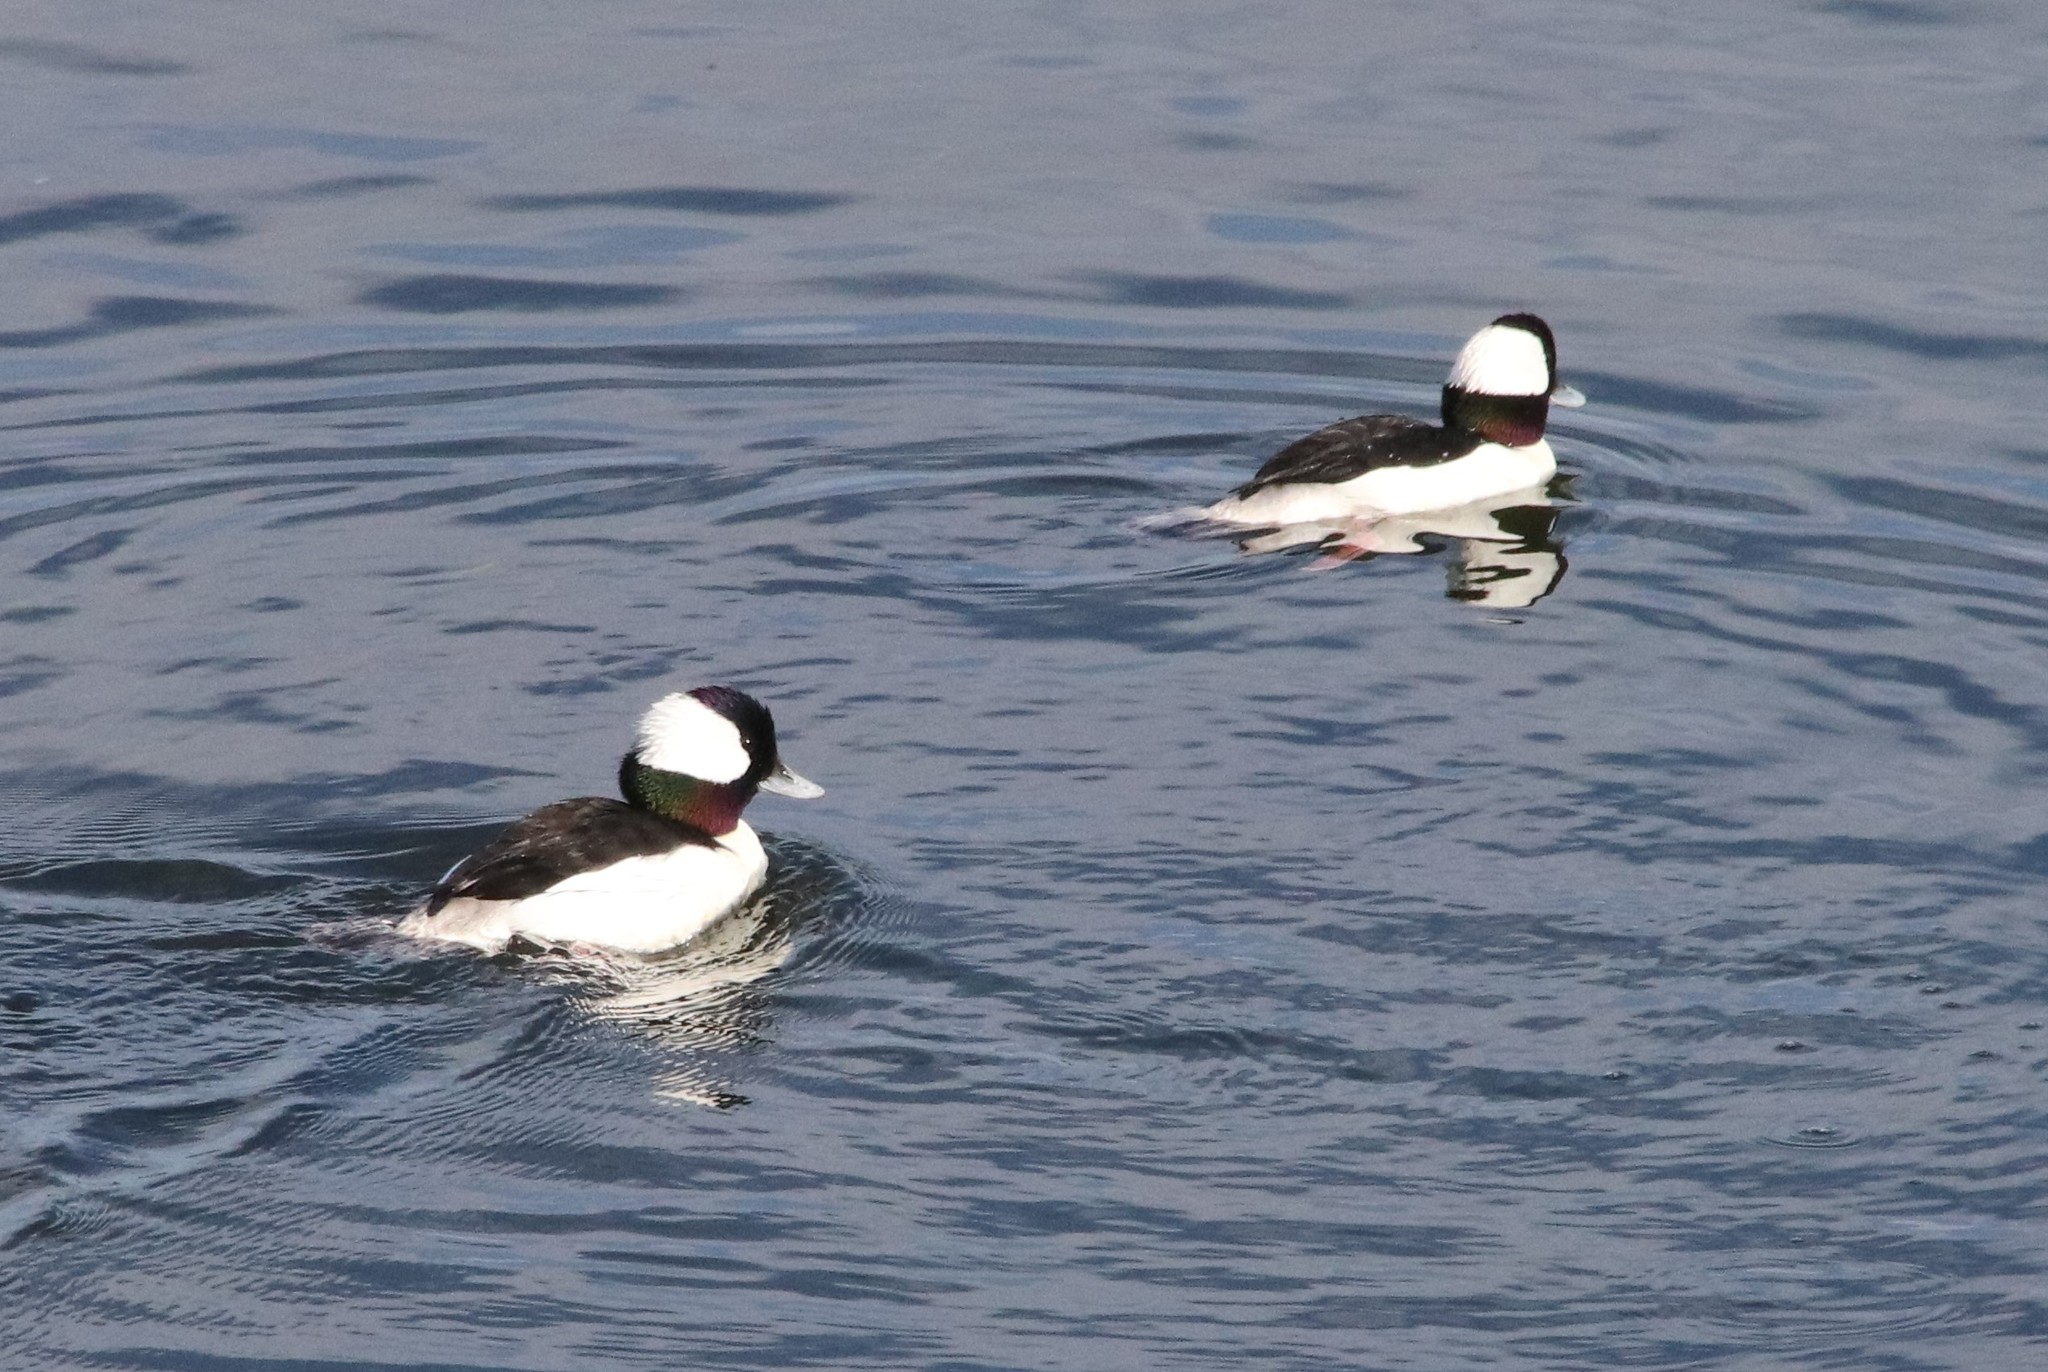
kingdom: Animalia
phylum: Chordata
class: Aves
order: Anseriformes
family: Anatidae
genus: Bucephala
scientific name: Bucephala albeola
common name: Bufflehead
